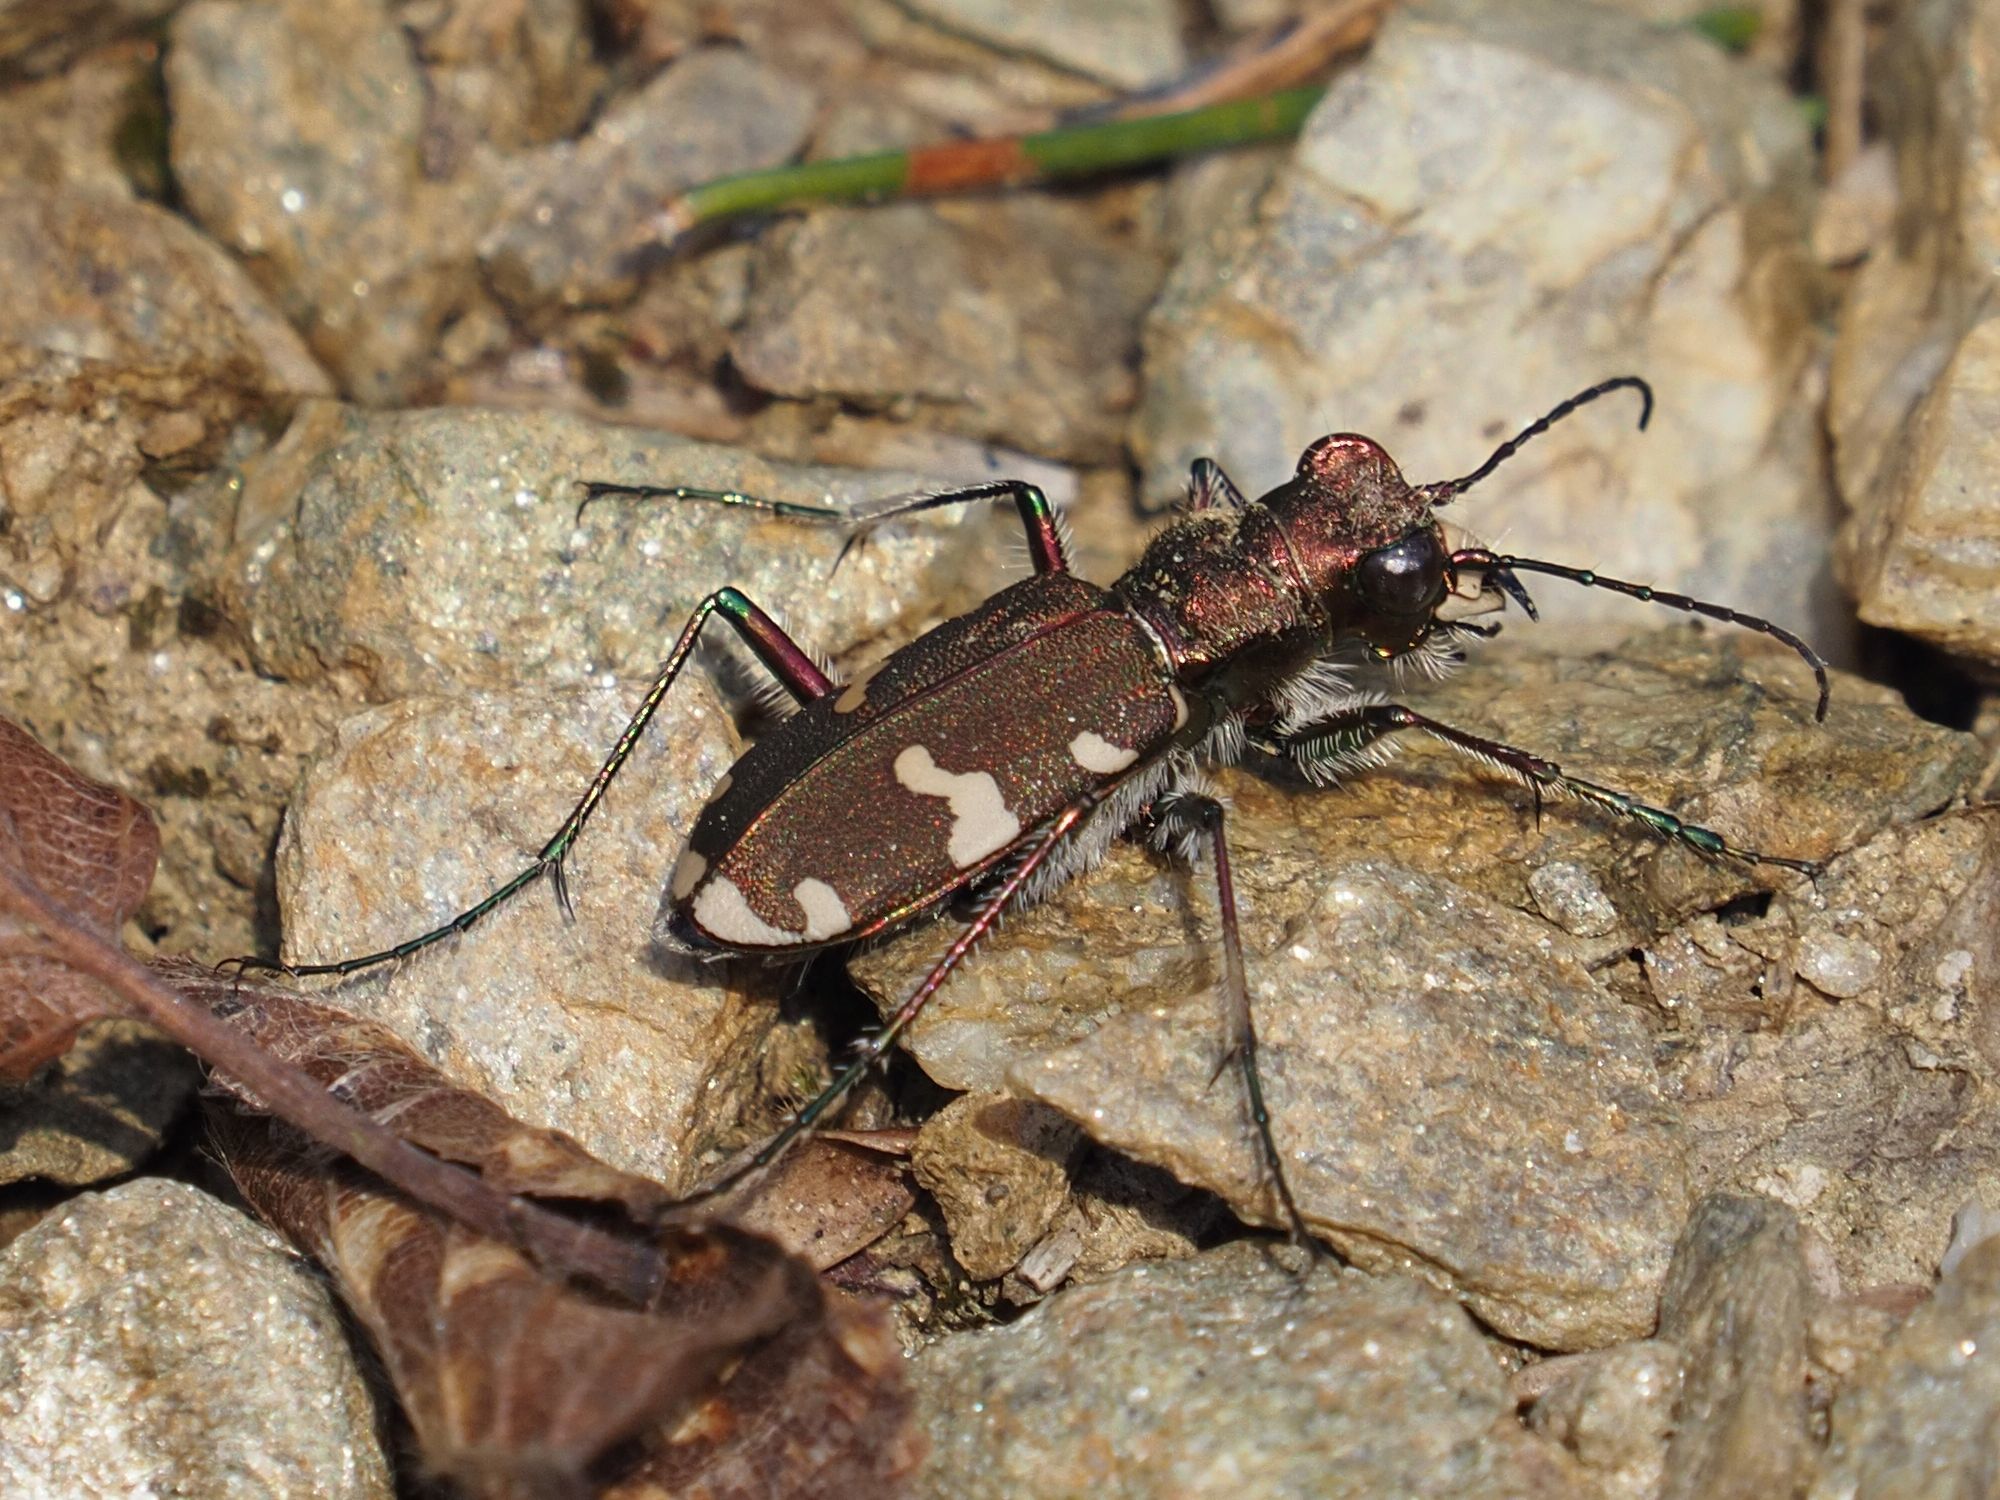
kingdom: Animalia
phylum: Arthropoda
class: Insecta
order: Coleoptera
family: Carabidae
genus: Cicindela
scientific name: Cicindela sylvicola
